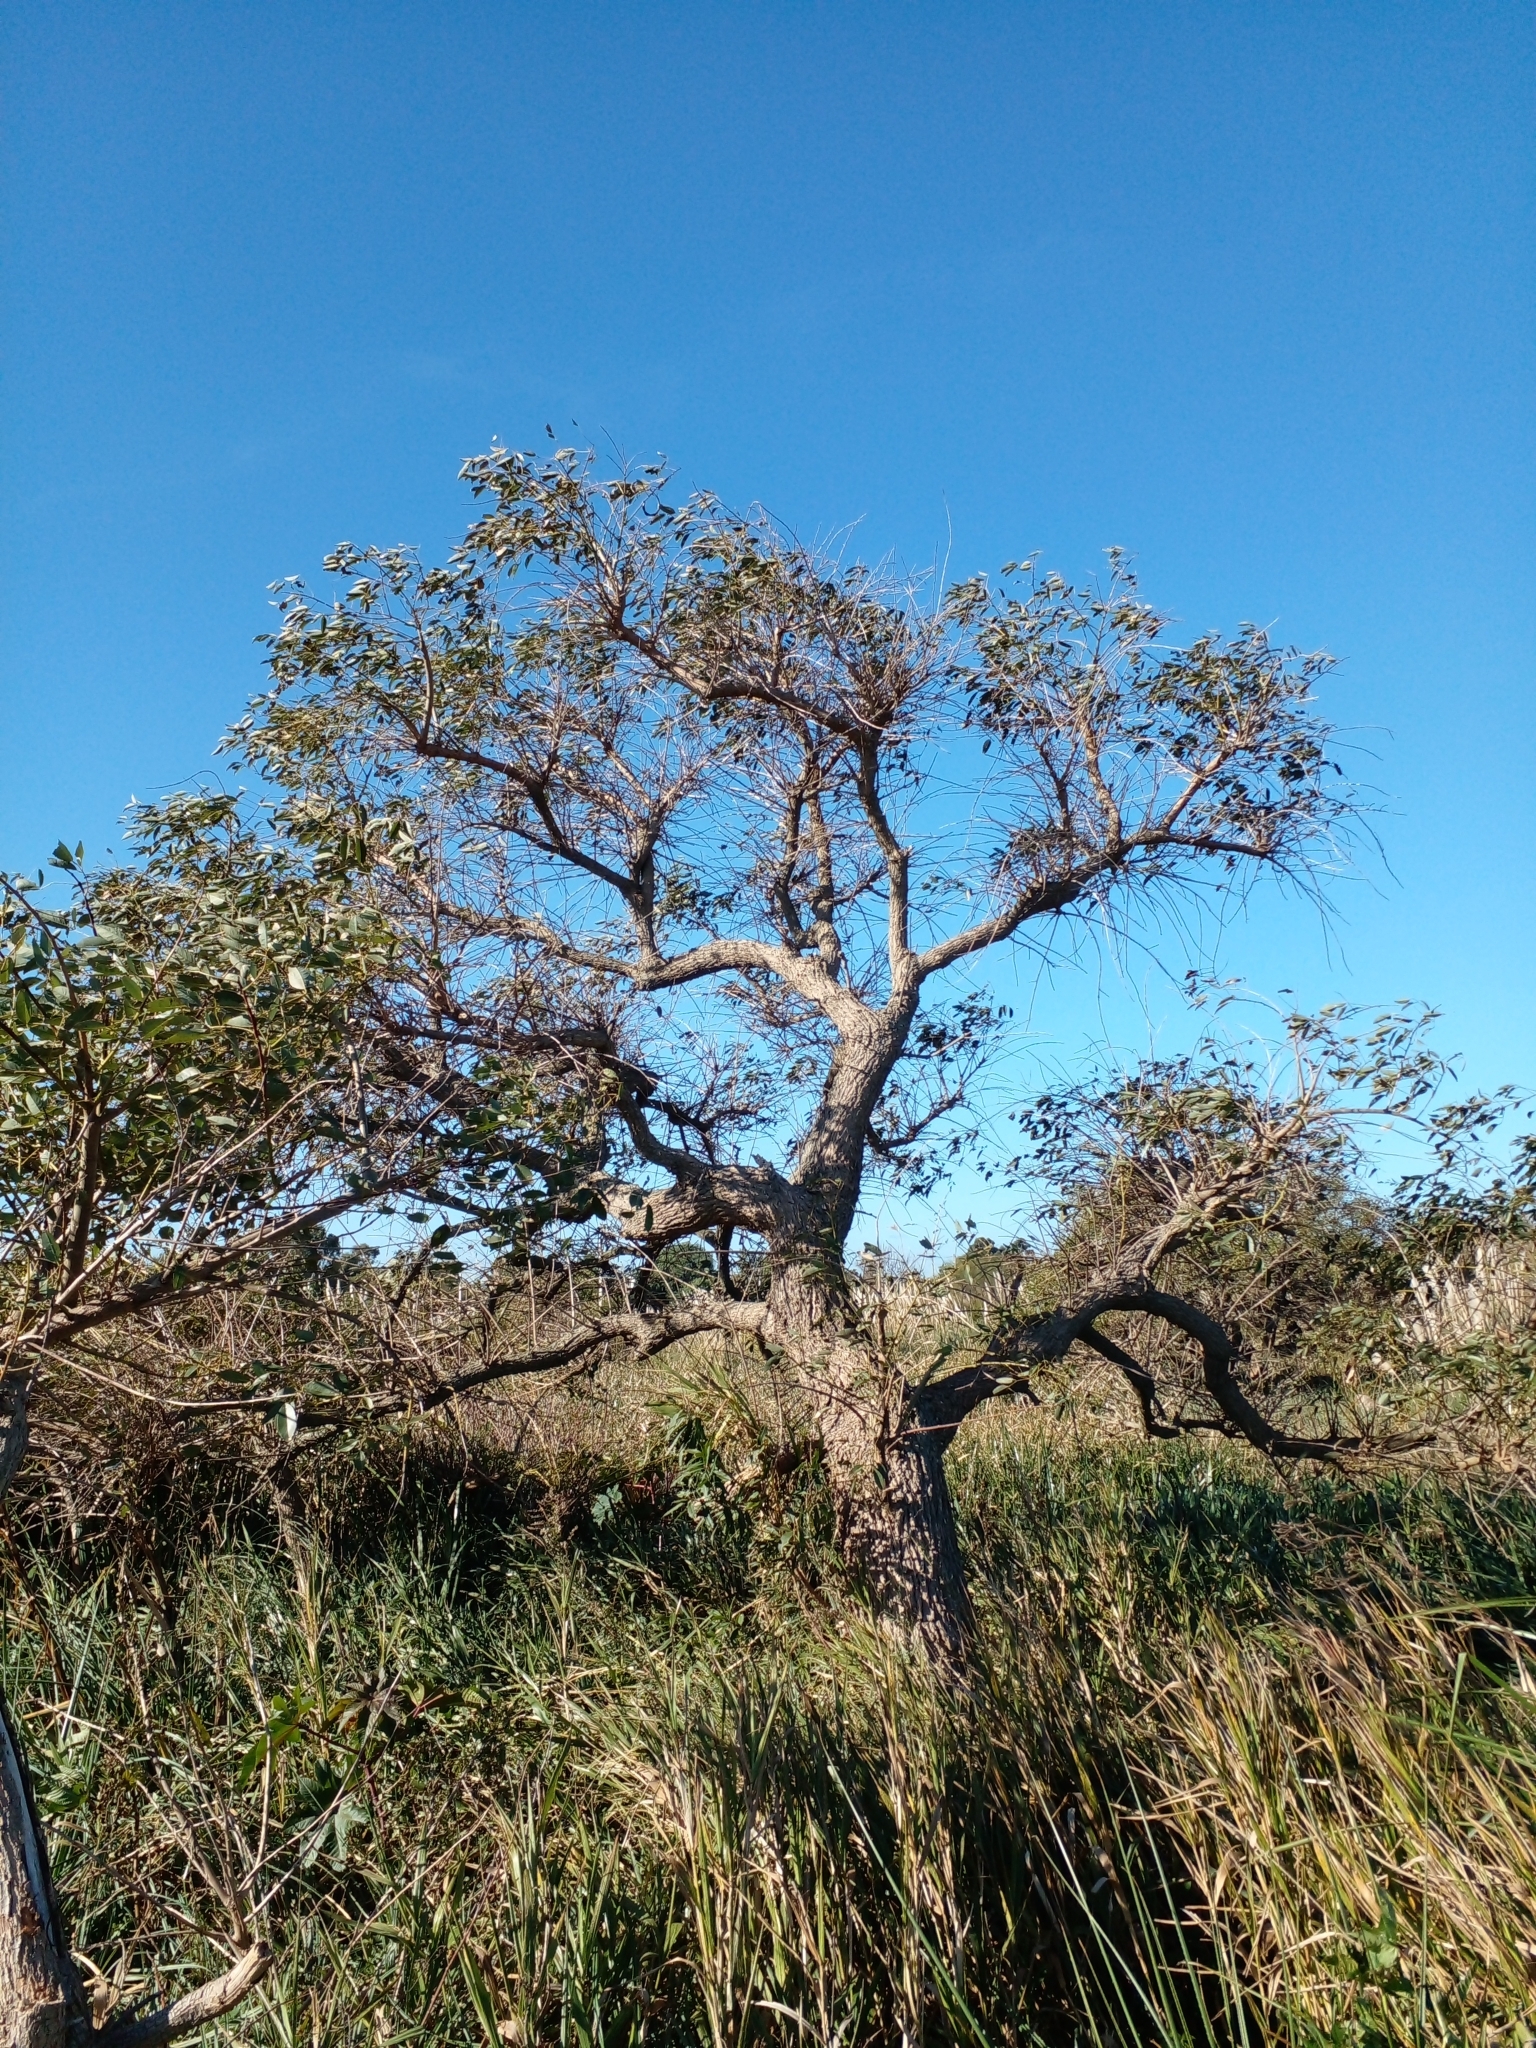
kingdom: Plantae
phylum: Tracheophyta
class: Magnoliopsida
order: Fabales
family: Fabaceae
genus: Erythrina
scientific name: Erythrina crista-galli
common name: Cockspur coral tree
